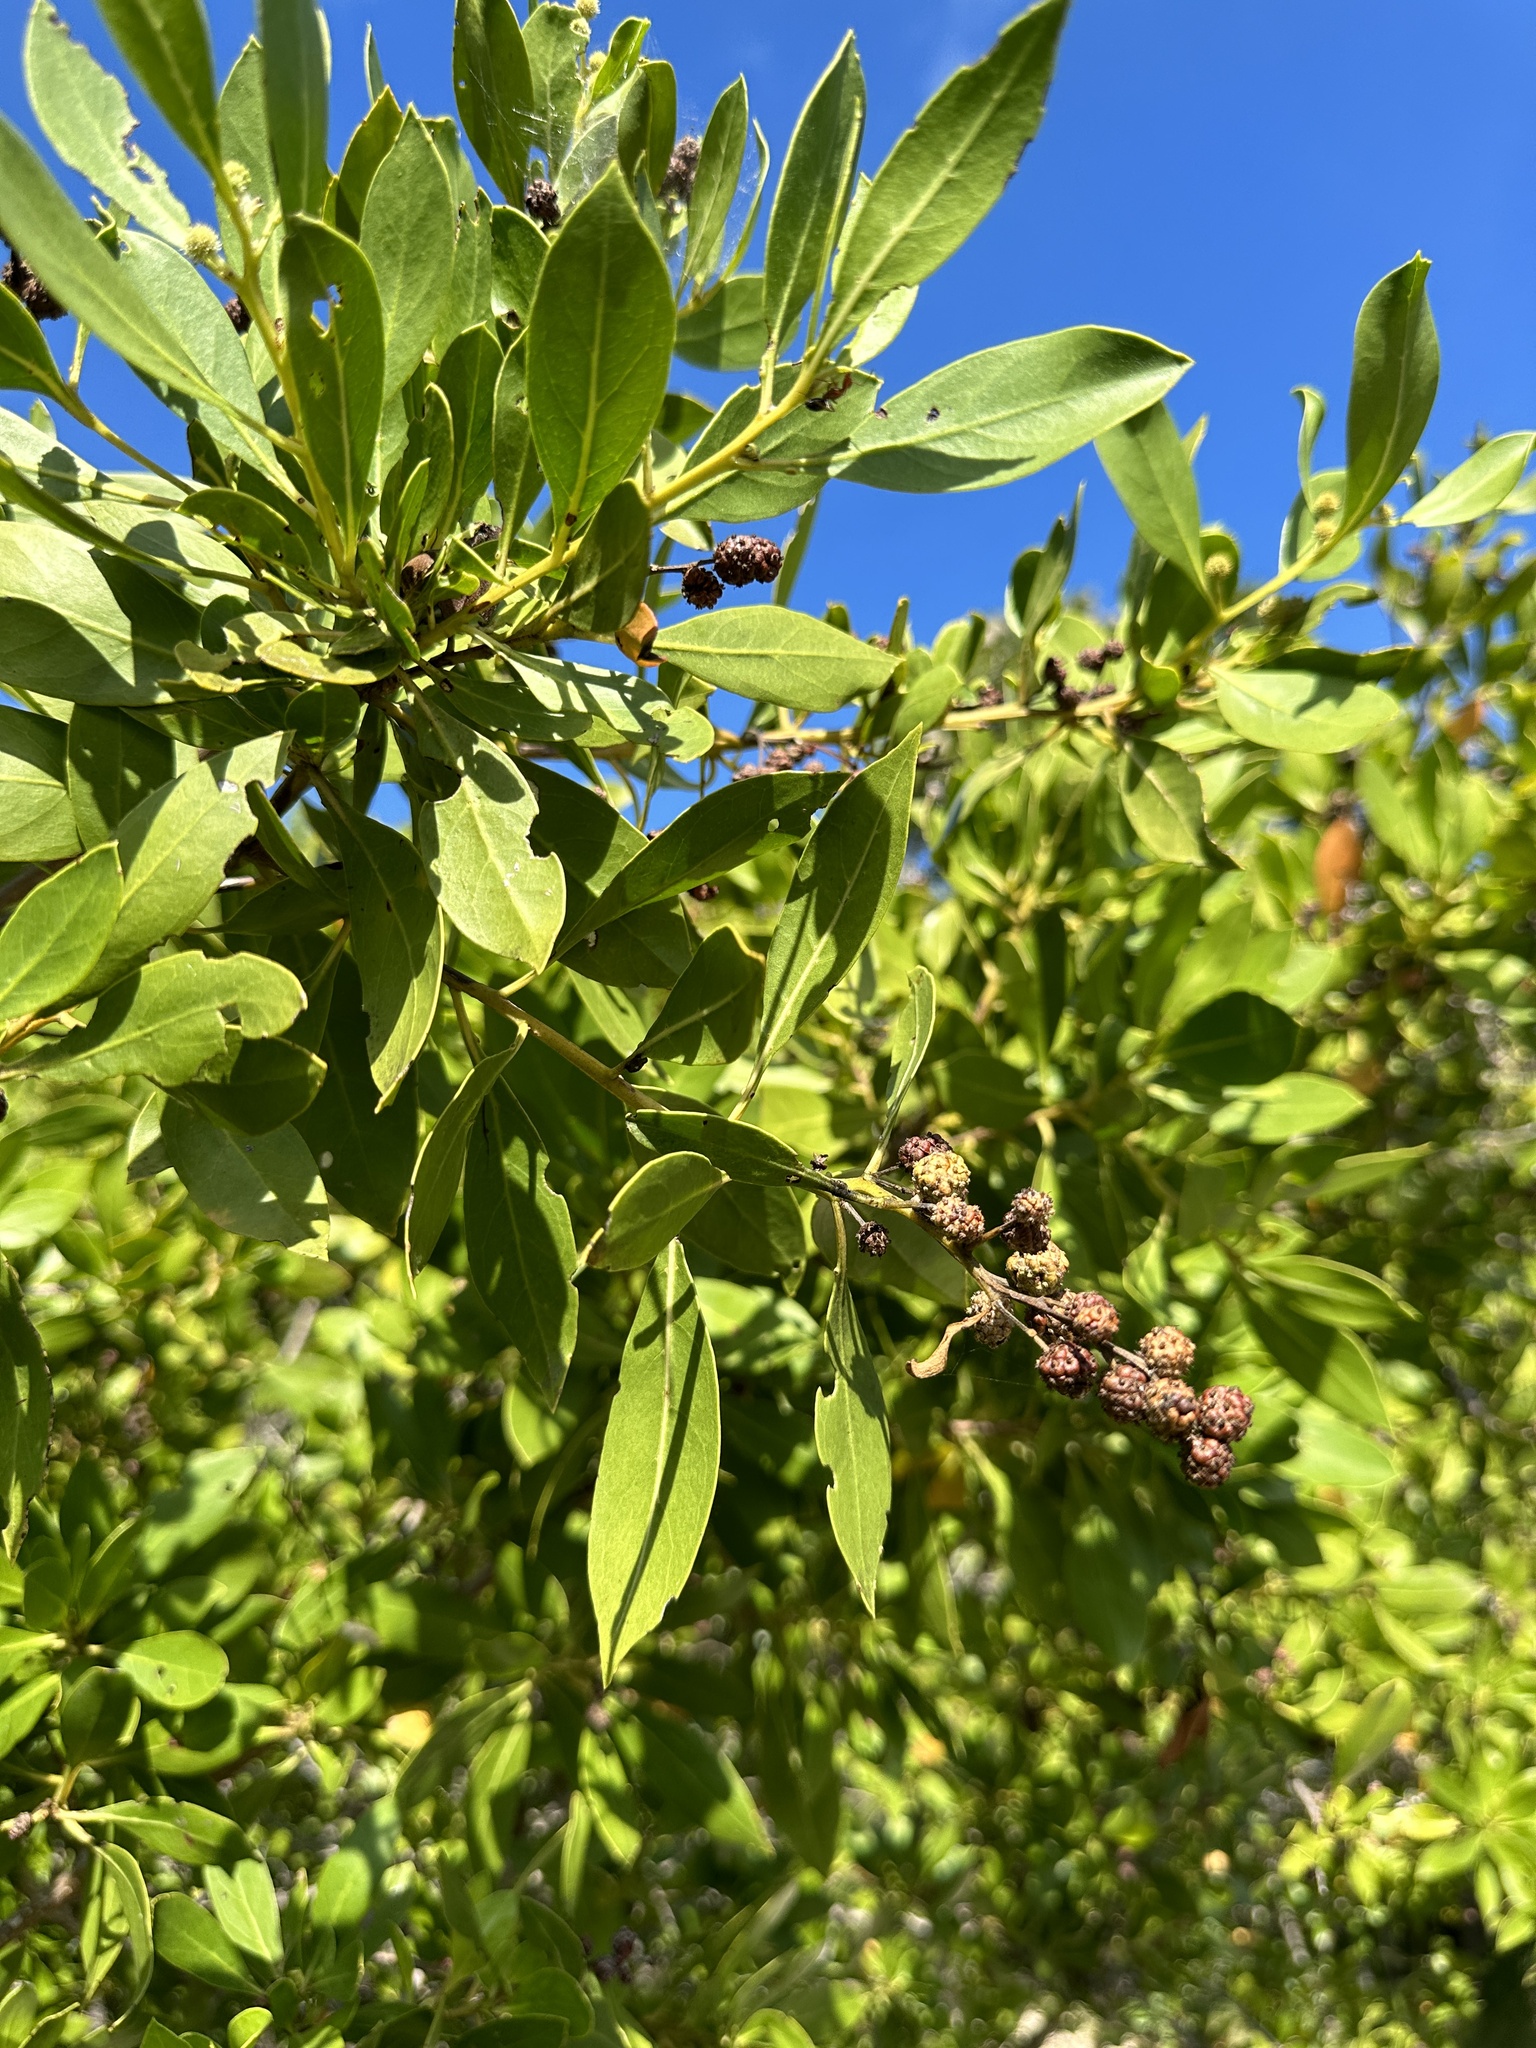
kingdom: Plantae
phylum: Tracheophyta
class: Magnoliopsida
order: Myrtales
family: Combretaceae
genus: Conocarpus
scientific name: Conocarpus erectus
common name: Button mangrove
